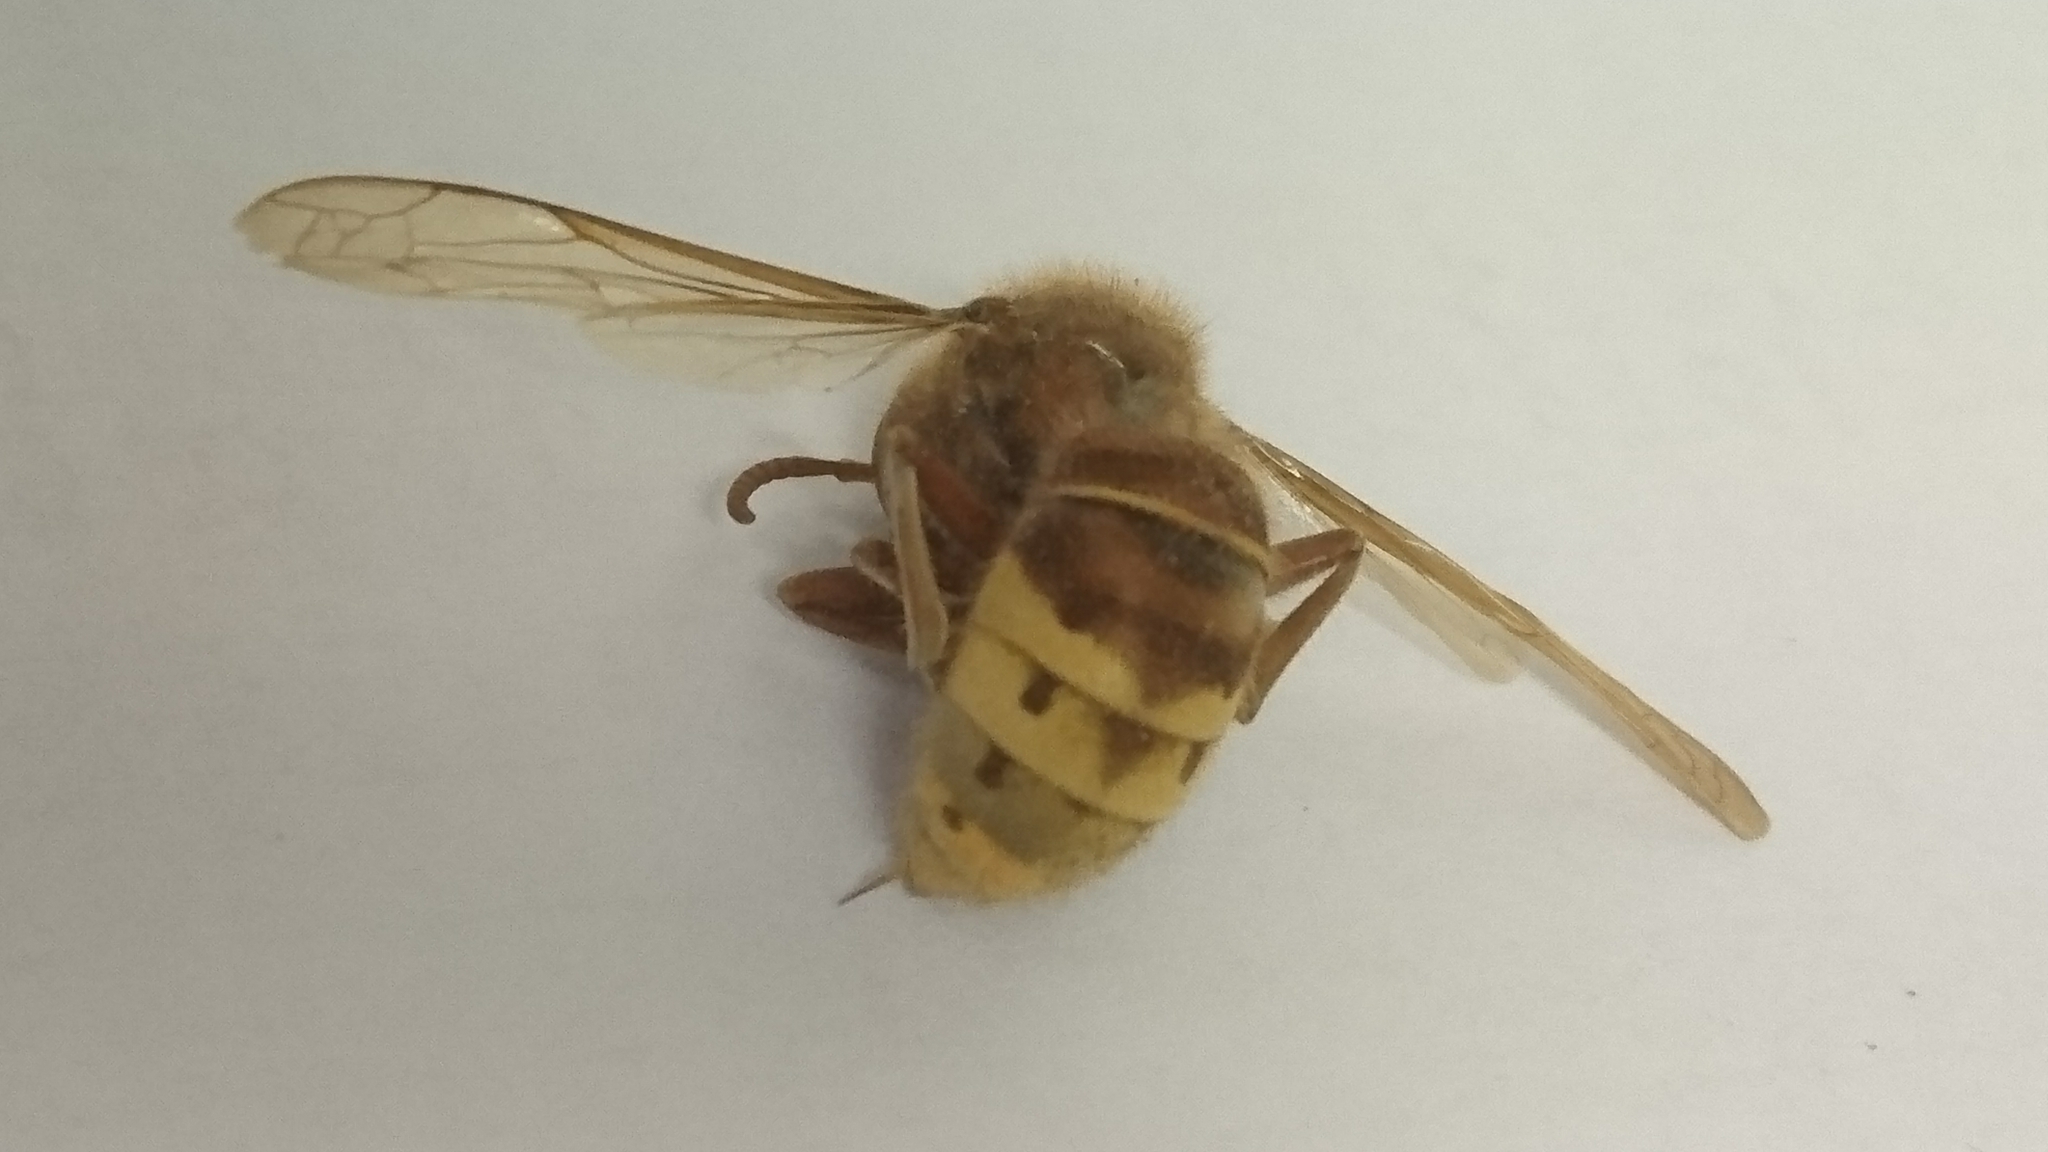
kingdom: Animalia
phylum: Arthropoda
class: Insecta
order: Hymenoptera
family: Vespidae
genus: Vespa
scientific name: Vespa crabro
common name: Hornet
